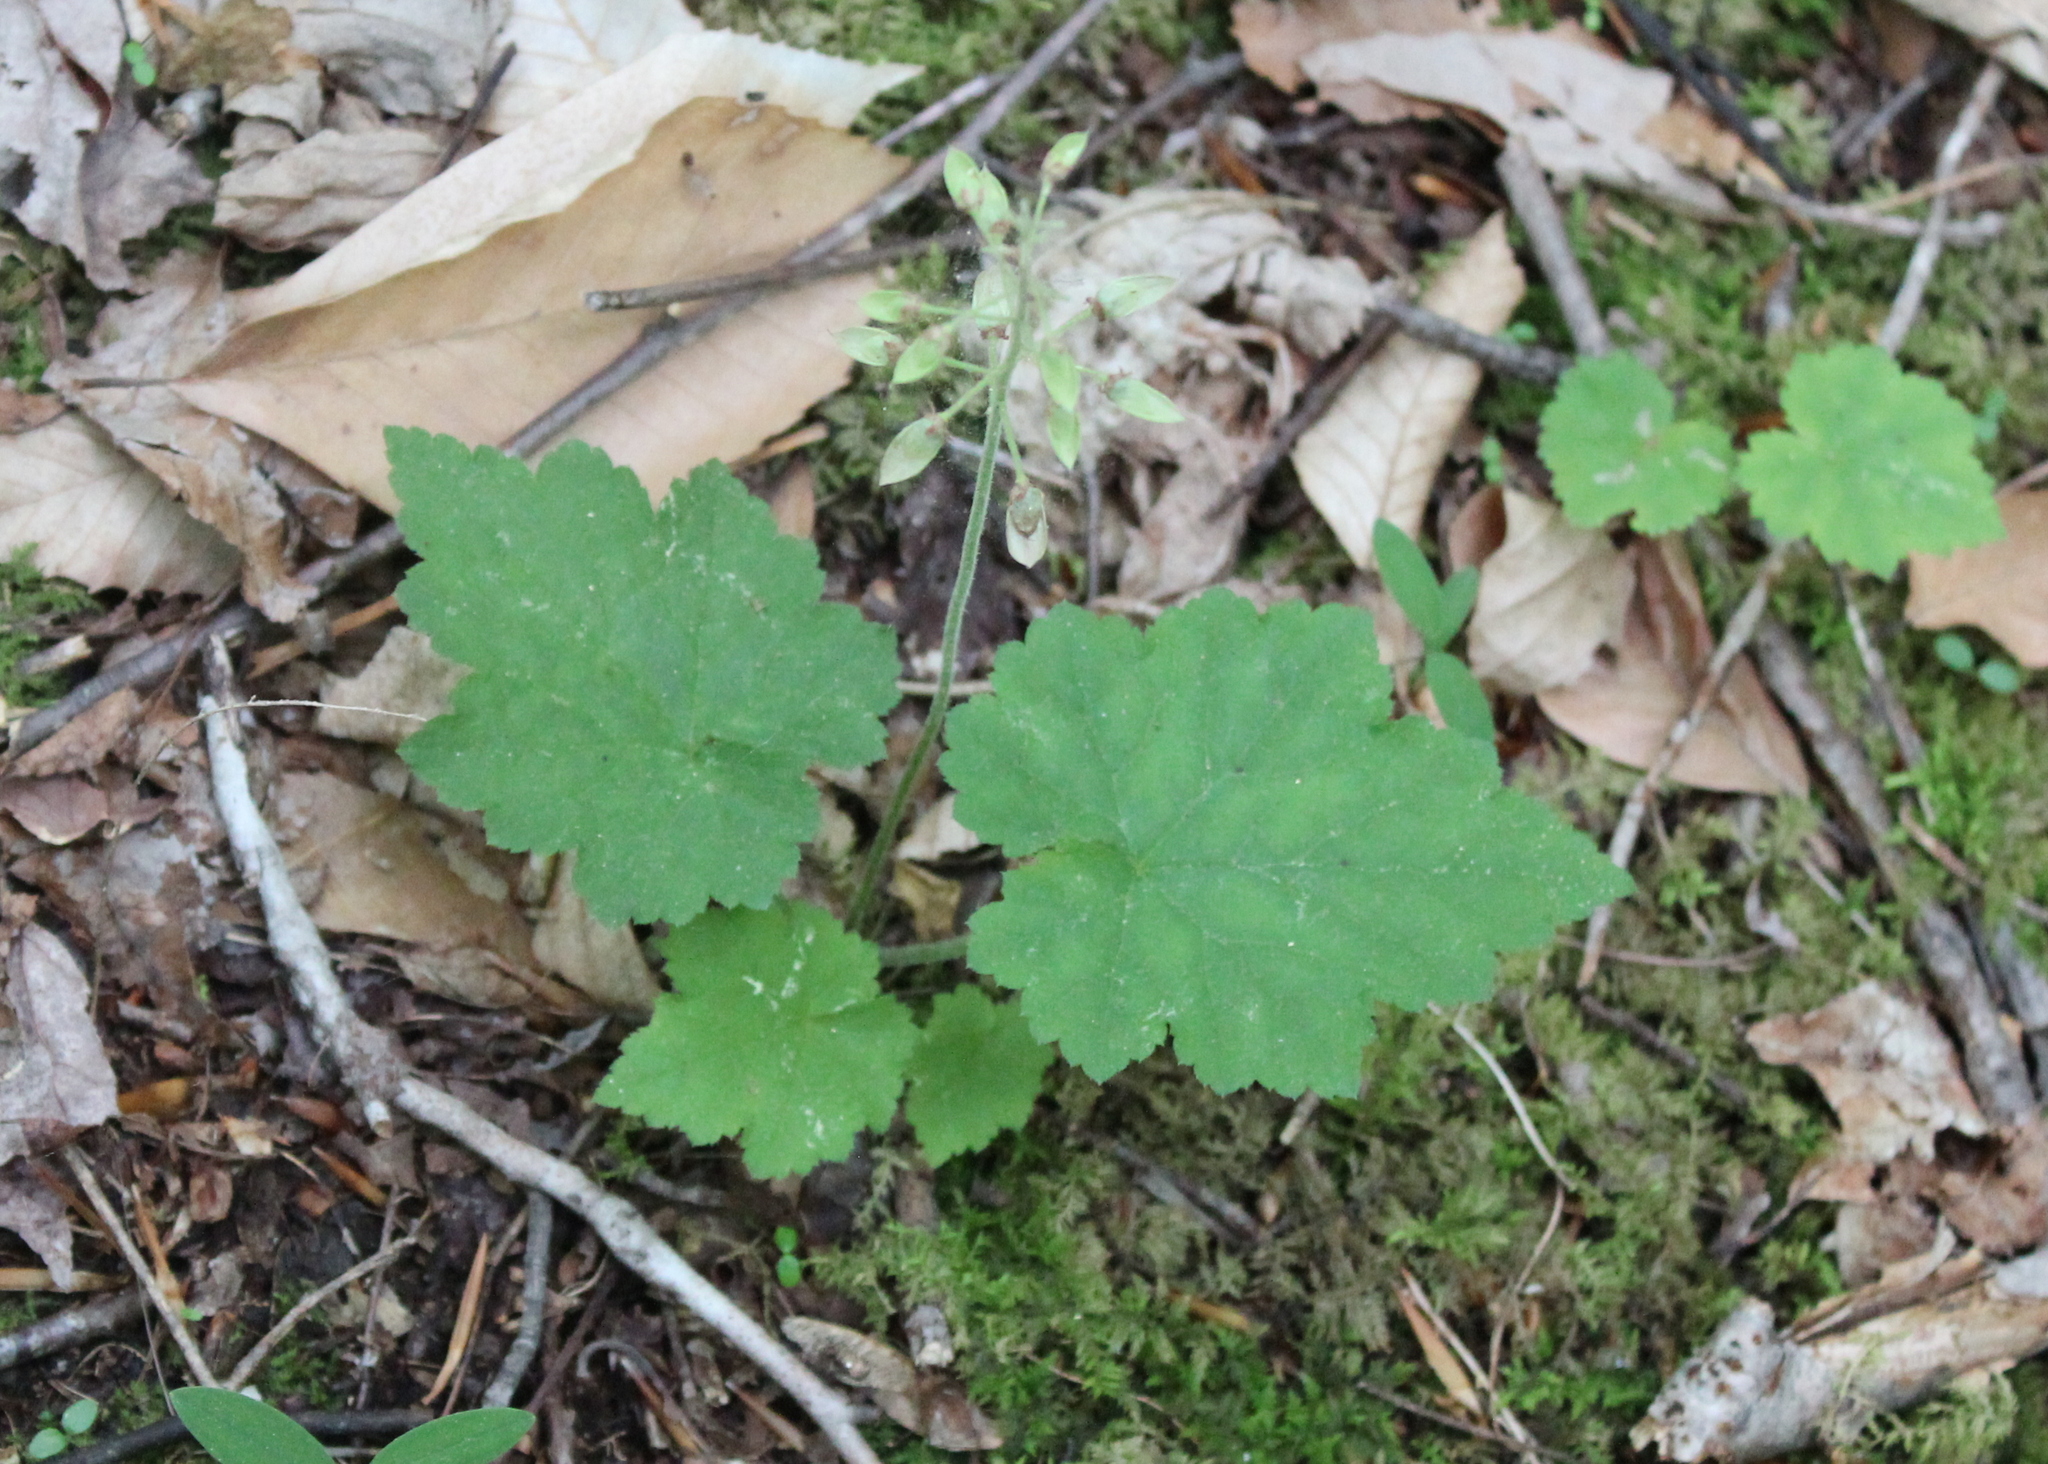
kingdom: Plantae
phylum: Tracheophyta
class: Magnoliopsida
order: Saxifragales
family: Saxifragaceae
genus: Tiarella
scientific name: Tiarella stolonifera
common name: Stoloniferous foamflower
